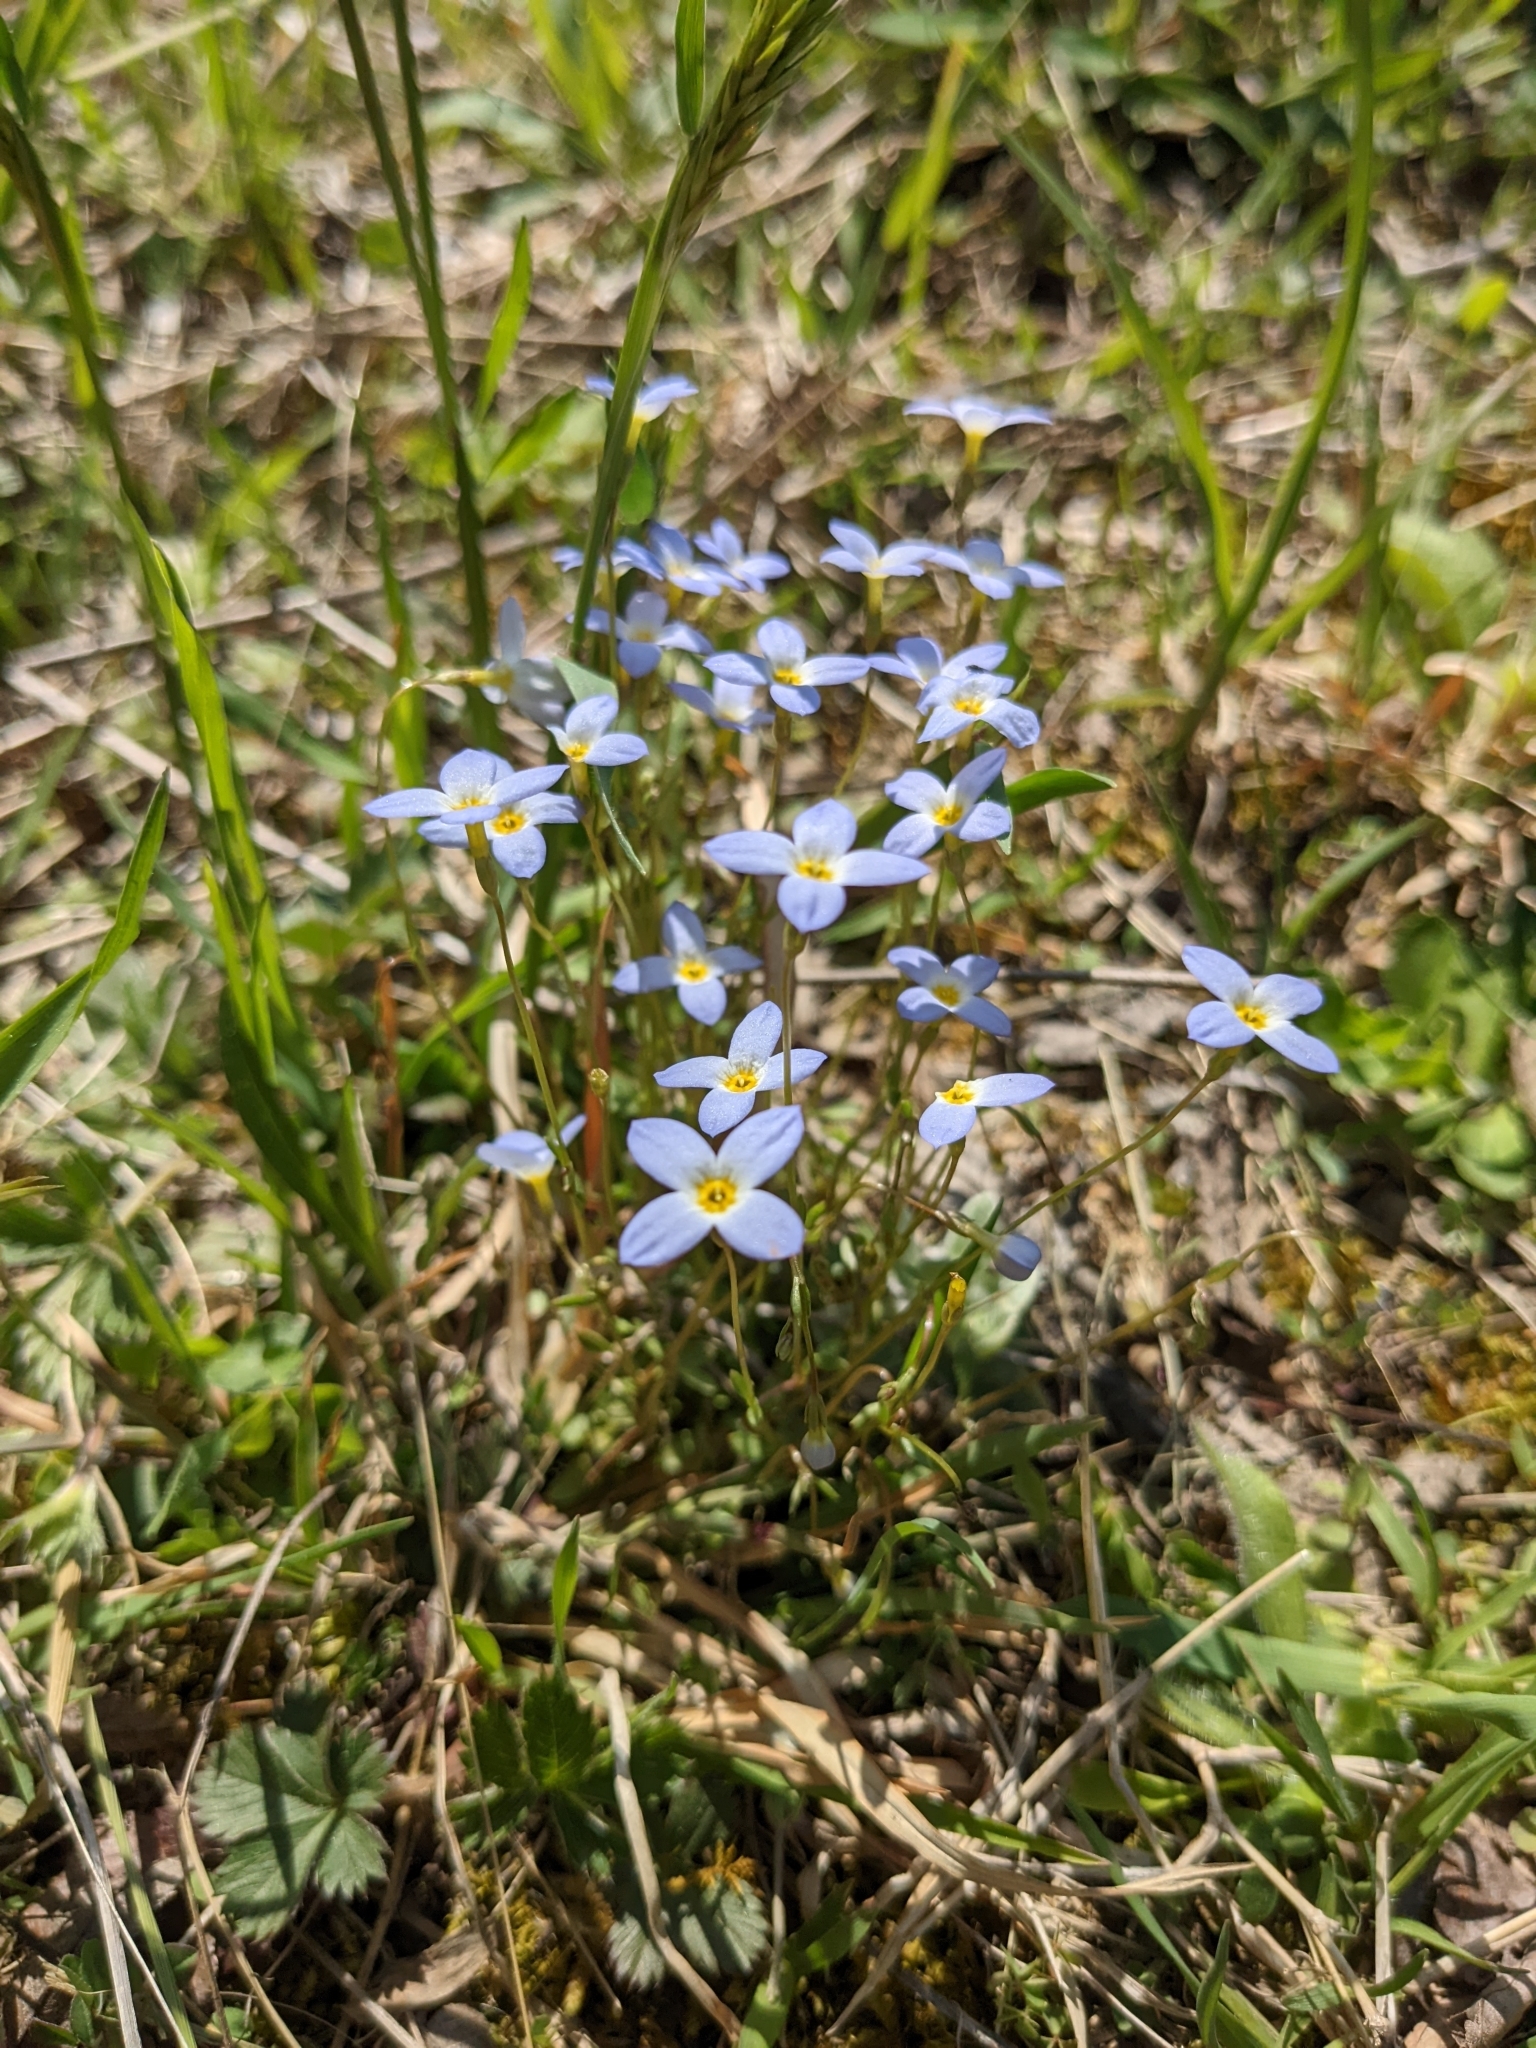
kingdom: Plantae
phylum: Tracheophyta
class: Magnoliopsida
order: Gentianales
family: Rubiaceae
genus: Houstonia
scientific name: Houstonia caerulea
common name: Bluets
